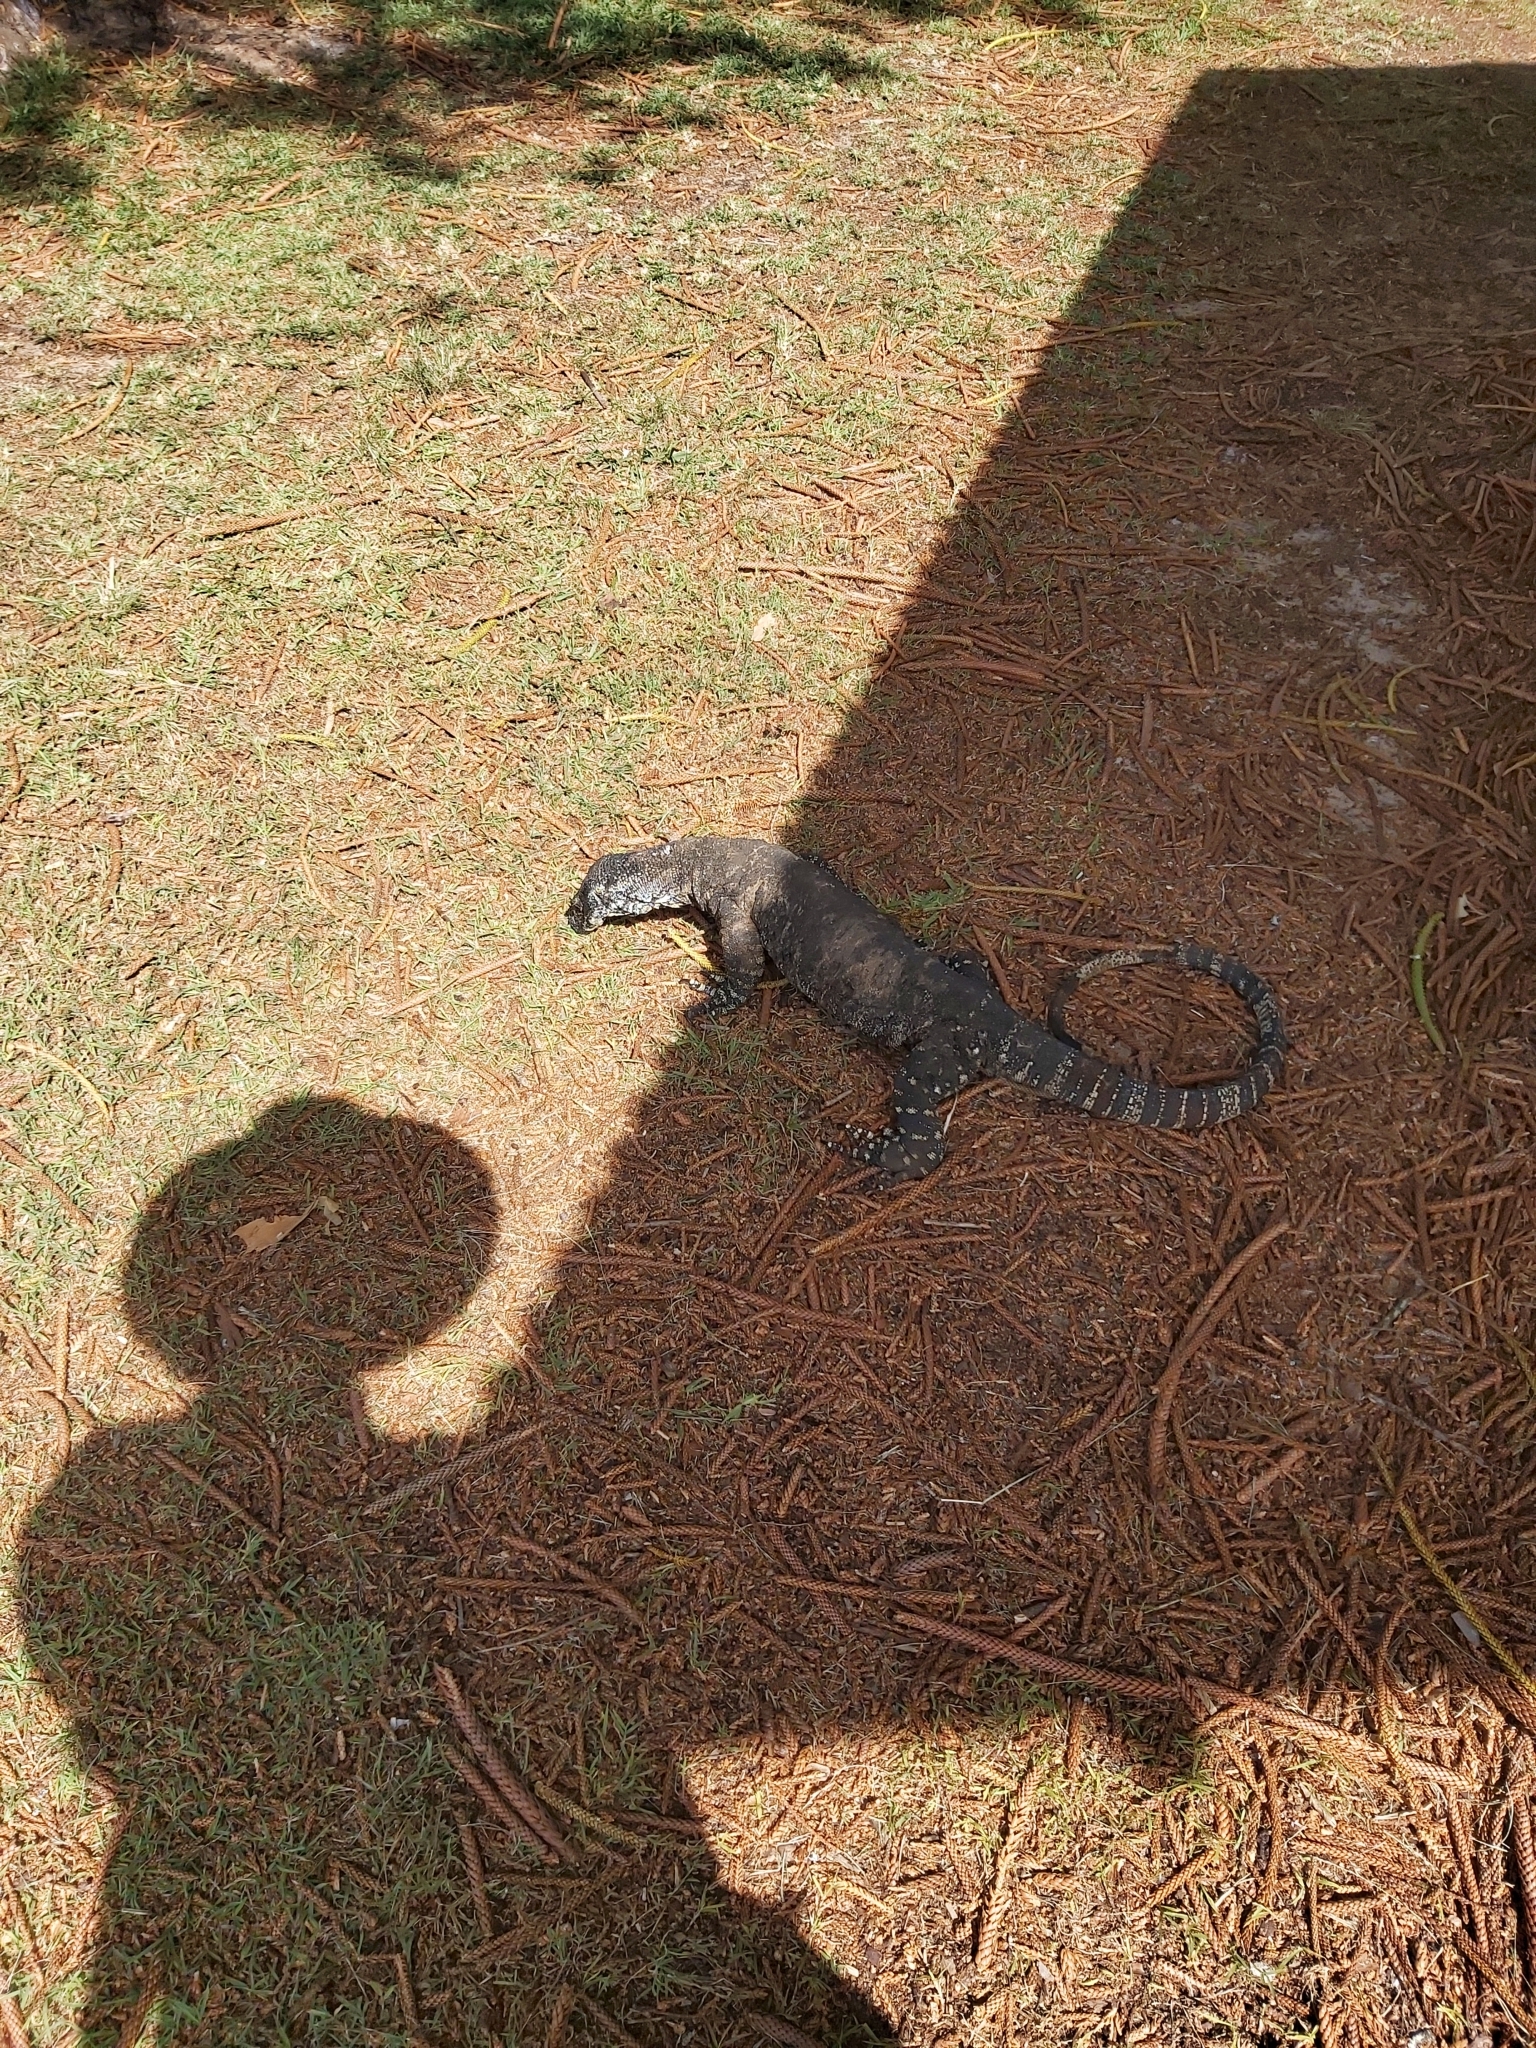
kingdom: Animalia
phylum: Chordata
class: Squamata
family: Varanidae
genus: Varanus
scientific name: Varanus varius
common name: Lace monitor
